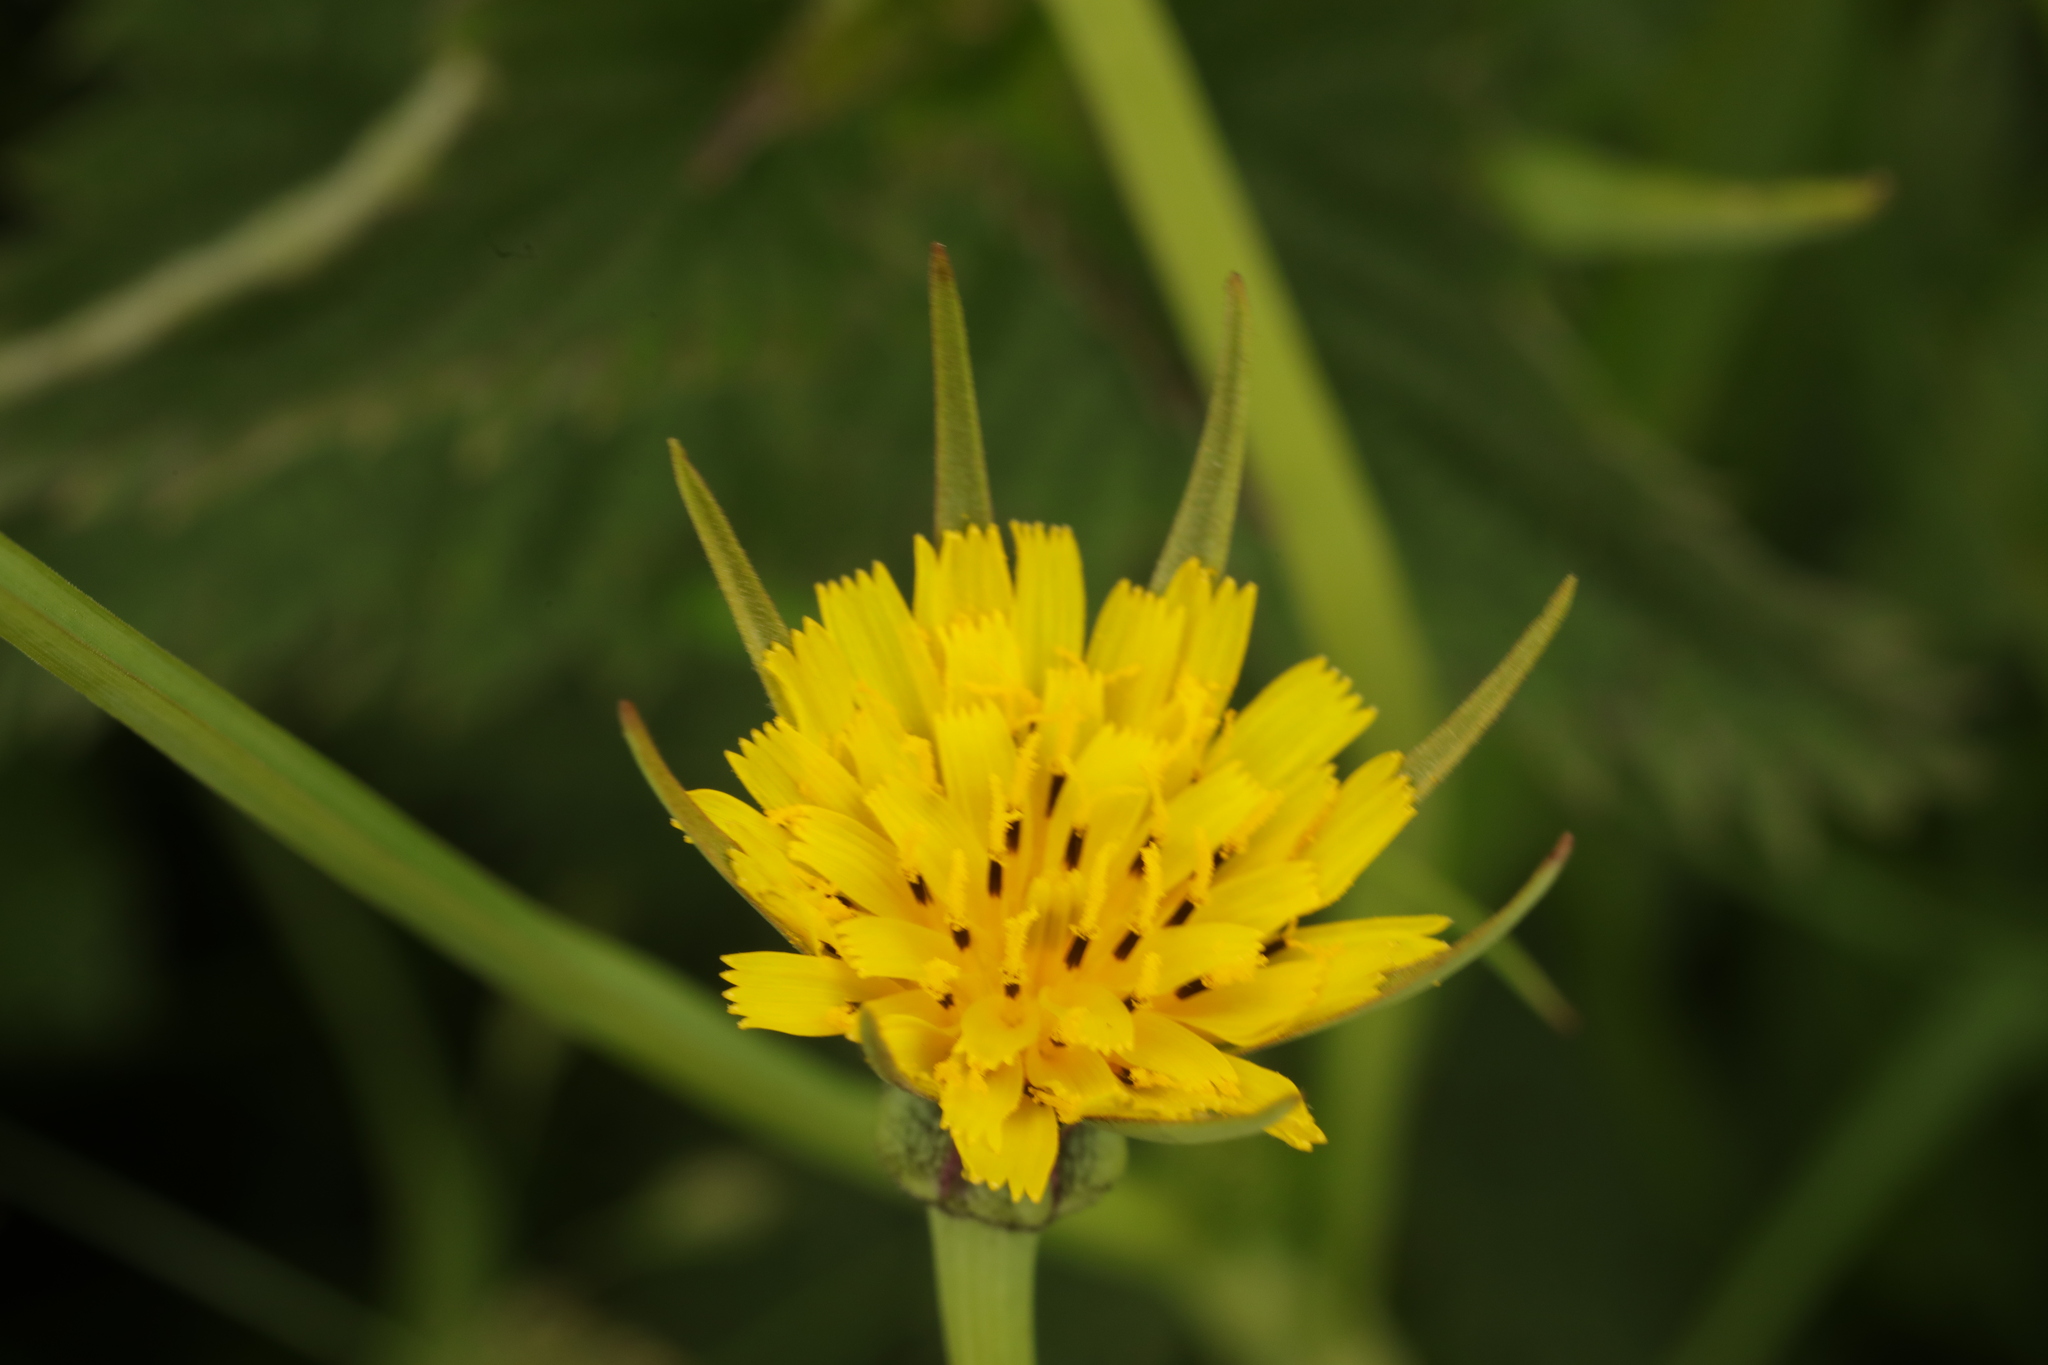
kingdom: Plantae
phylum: Tracheophyta
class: Magnoliopsida
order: Asterales
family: Asteraceae
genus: Tragopogon
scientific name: Tragopogon pratensis
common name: Goat's-beard
